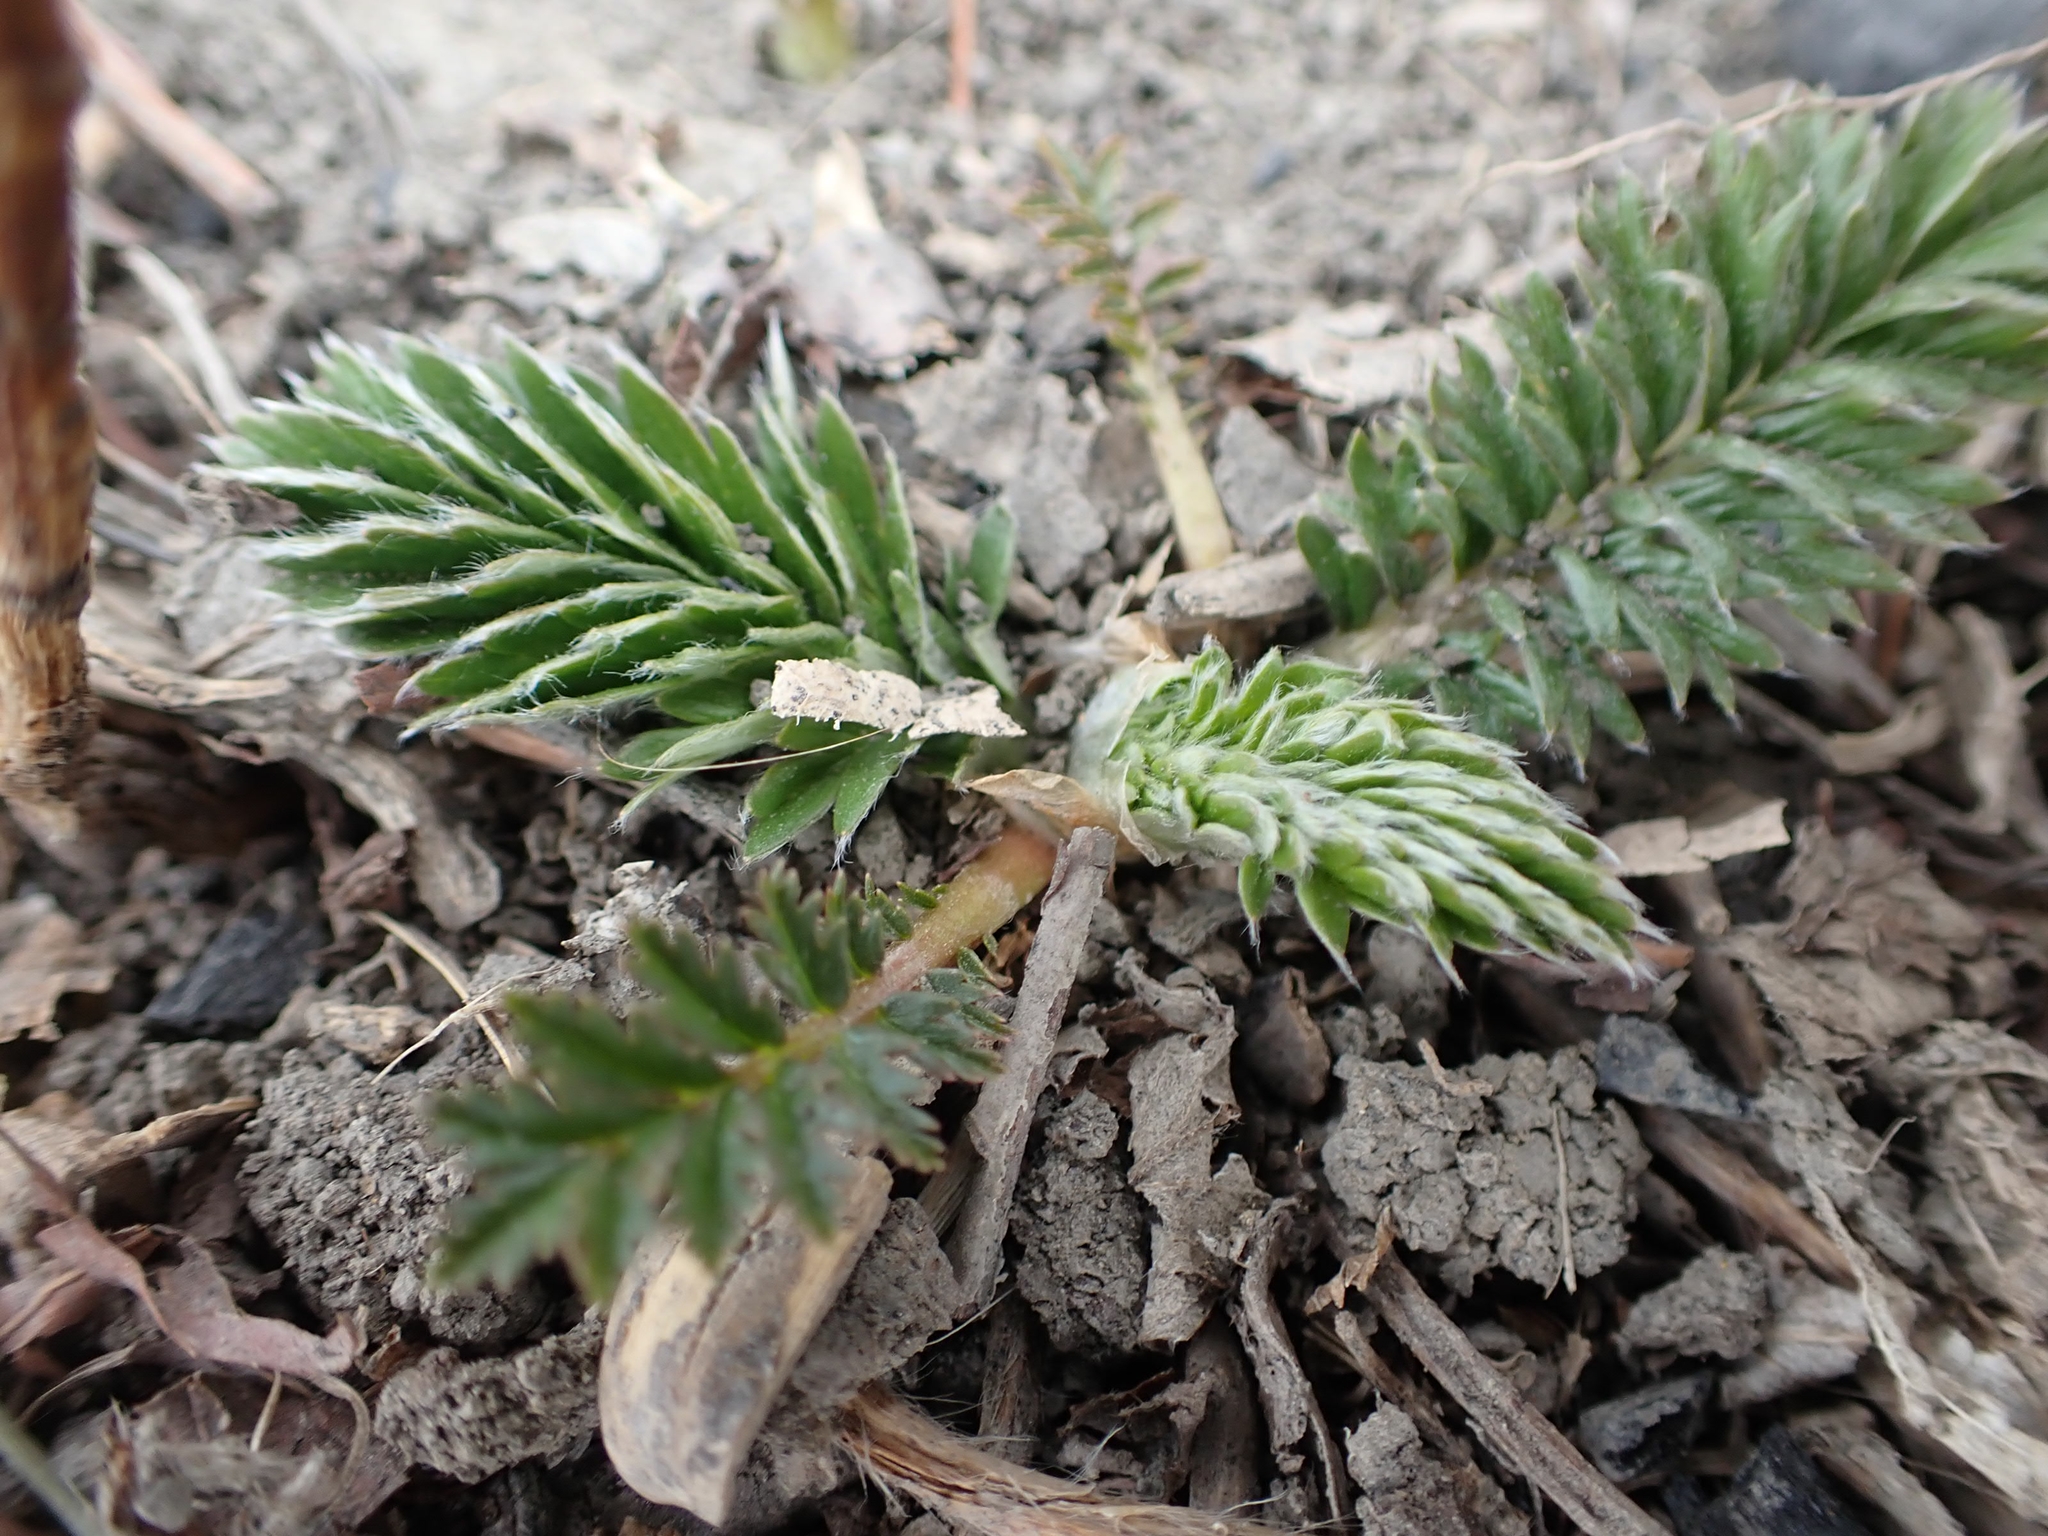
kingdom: Plantae
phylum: Tracheophyta
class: Magnoliopsida
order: Rosales
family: Rosaceae
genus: Argentina
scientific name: Argentina anserina
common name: Common silverweed
